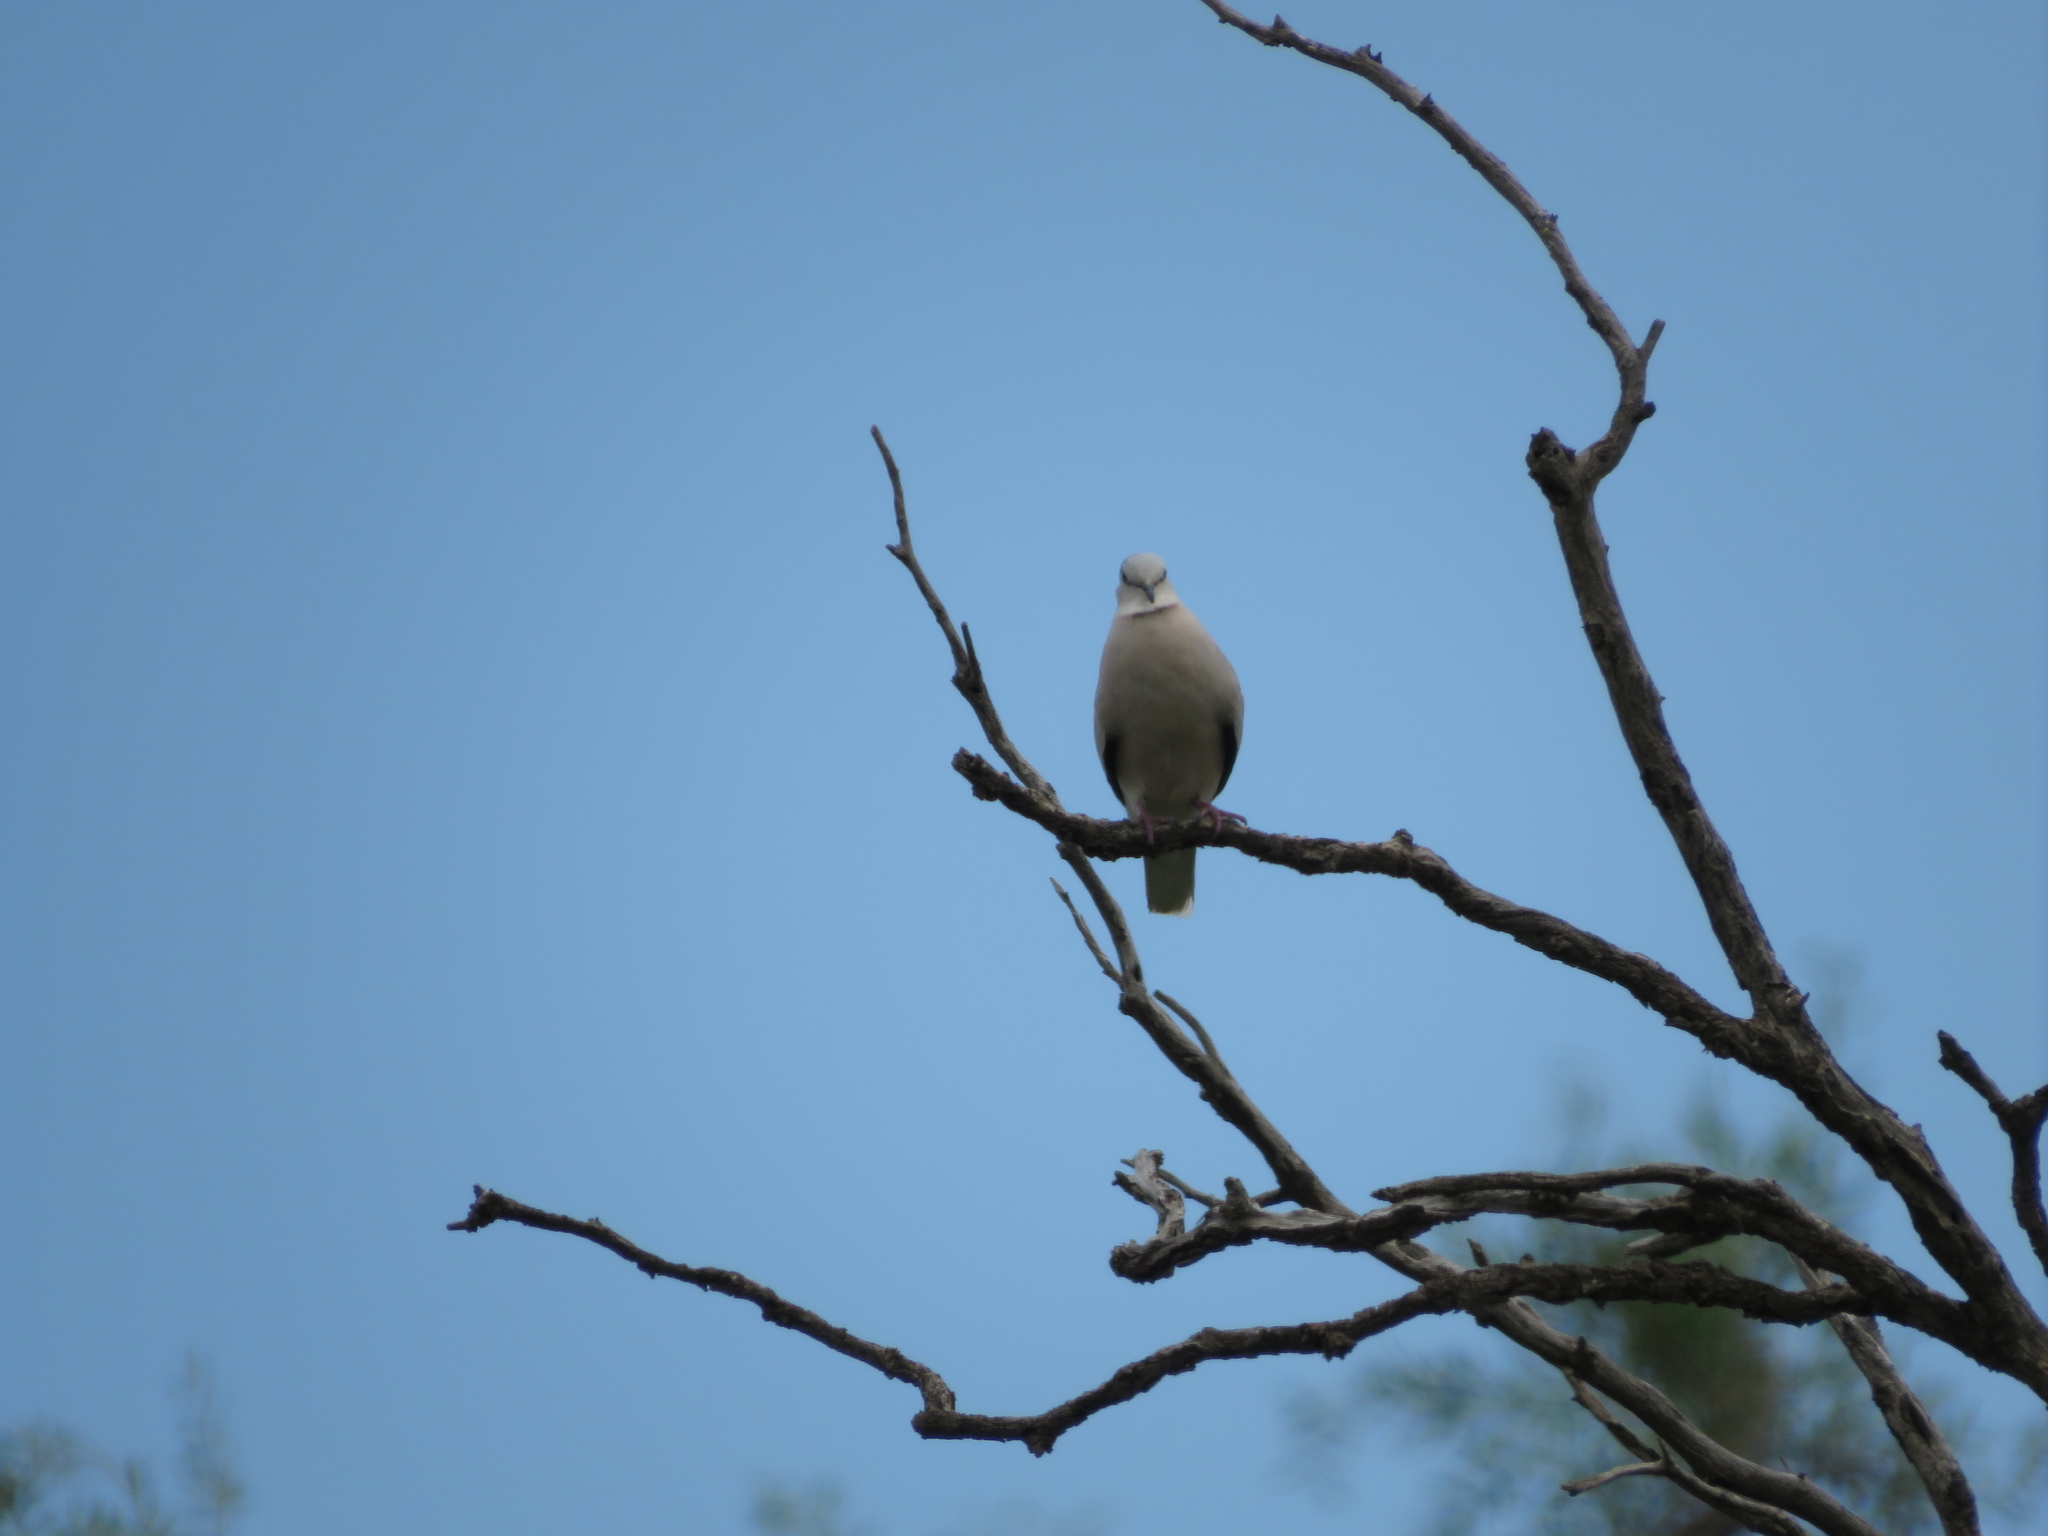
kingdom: Animalia
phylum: Chordata
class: Aves
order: Columbiformes
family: Columbidae
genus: Columbina
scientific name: Columbina picui
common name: Picui ground dove
